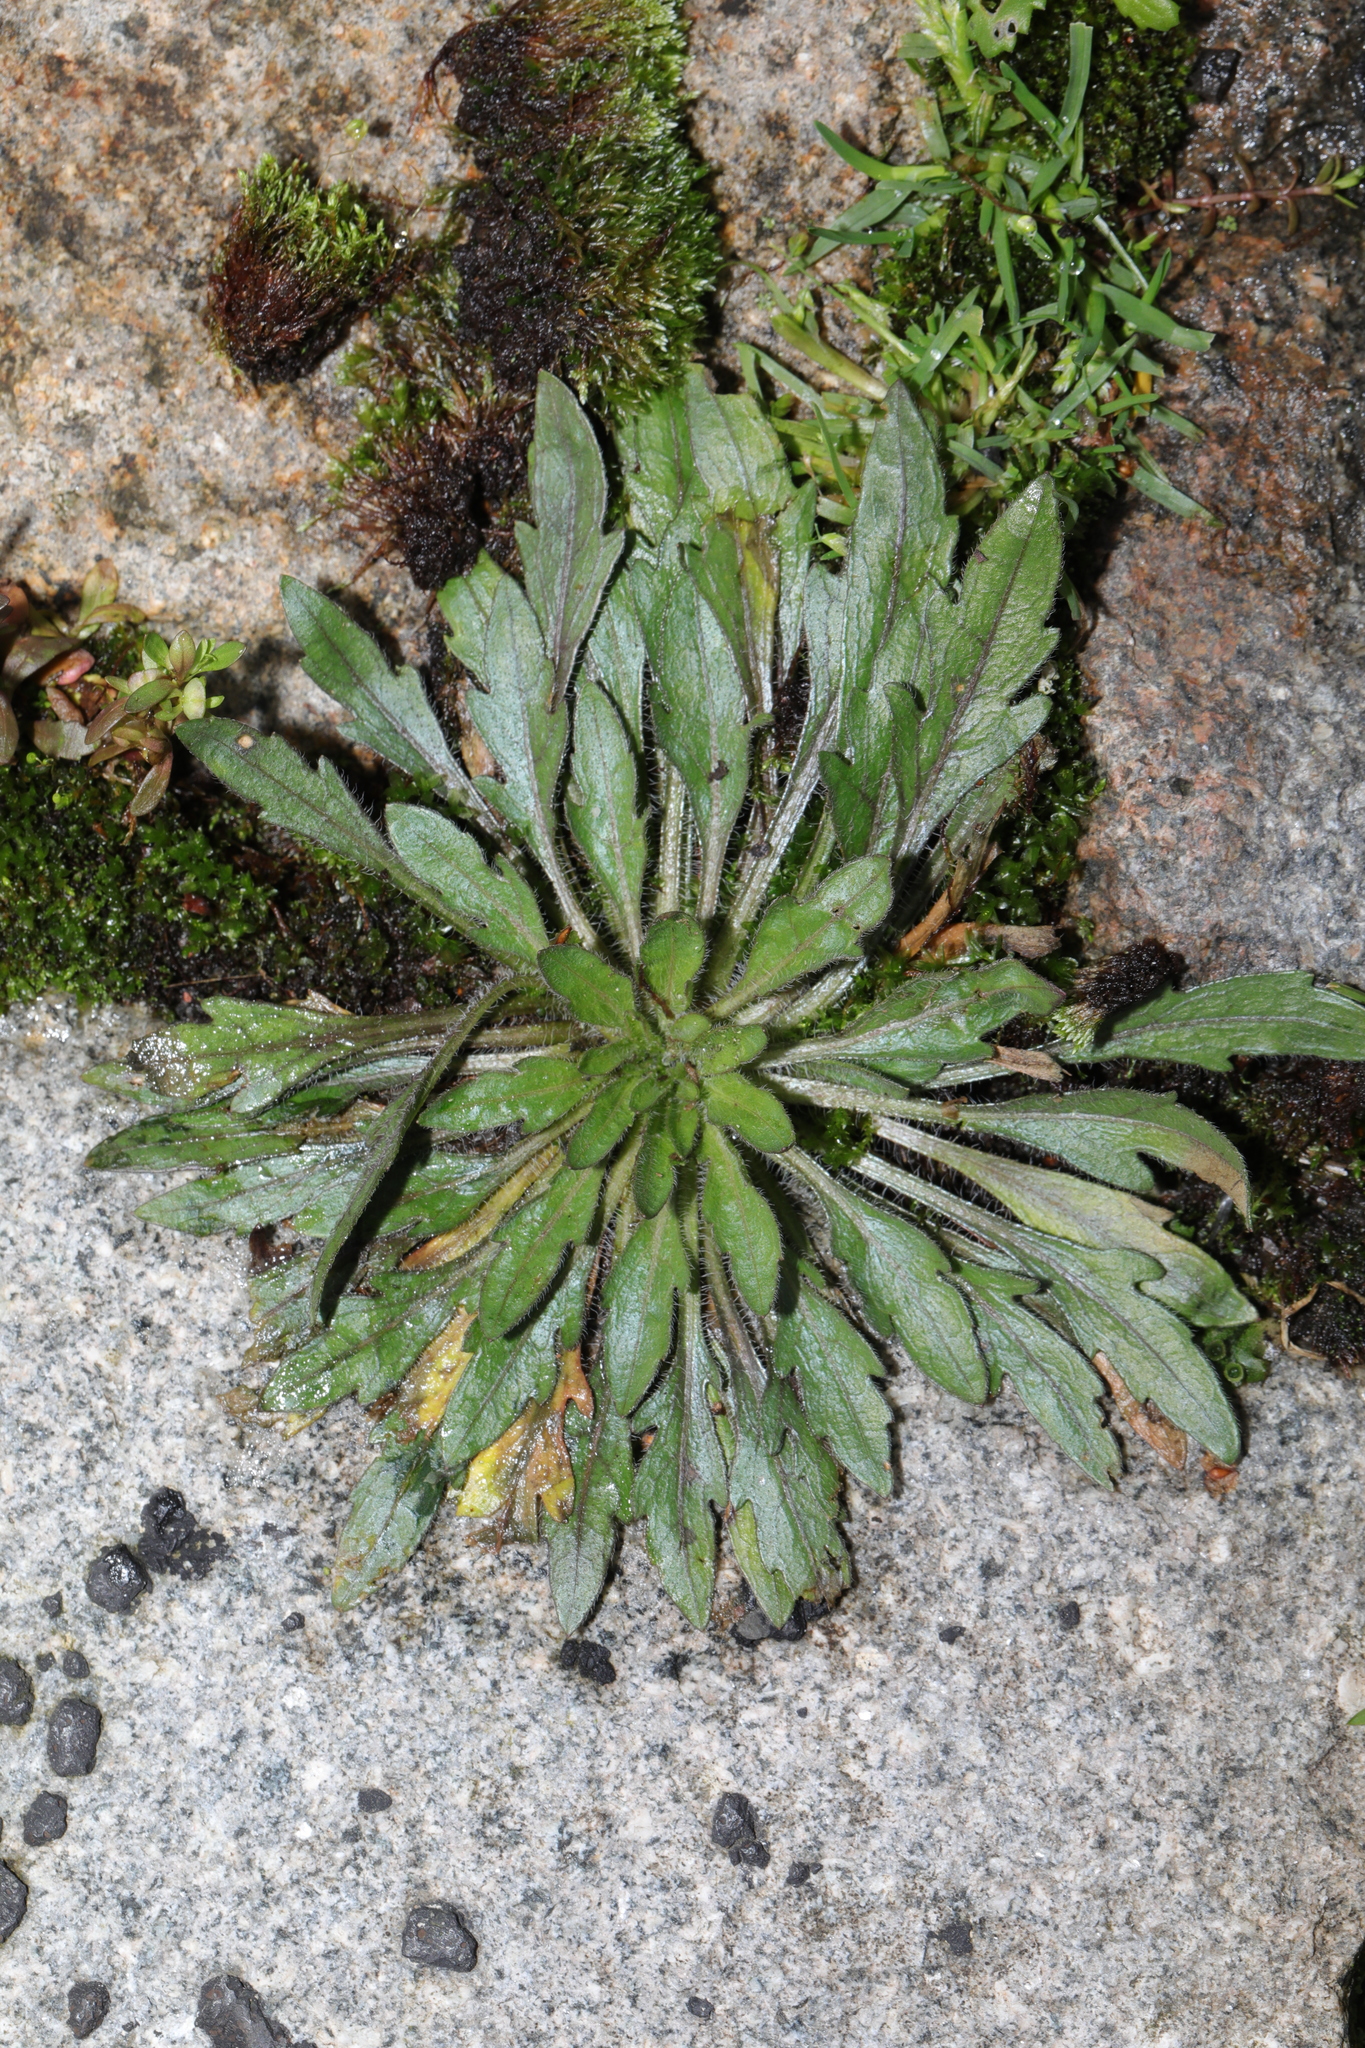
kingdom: Plantae
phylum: Tracheophyta
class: Magnoliopsida
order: Asterales
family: Asteraceae
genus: Erigeron
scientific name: Erigeron
